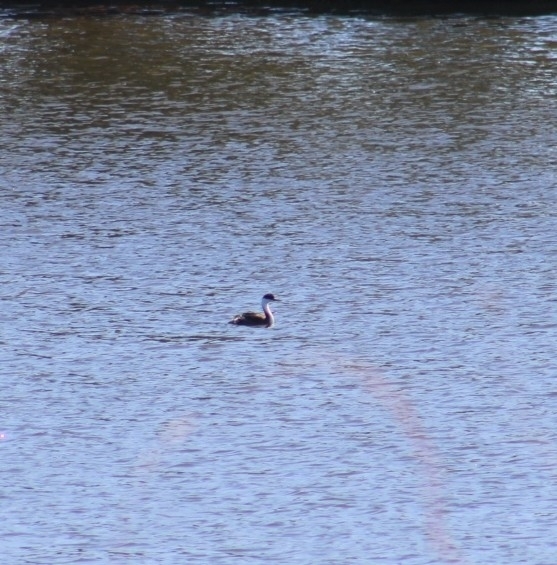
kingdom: Animalia
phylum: Chordata
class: Aves
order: Podicipediformes
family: Podicipedidae
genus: Aechmophorus
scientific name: Aechmophorus occidentalis
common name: Western grebe
